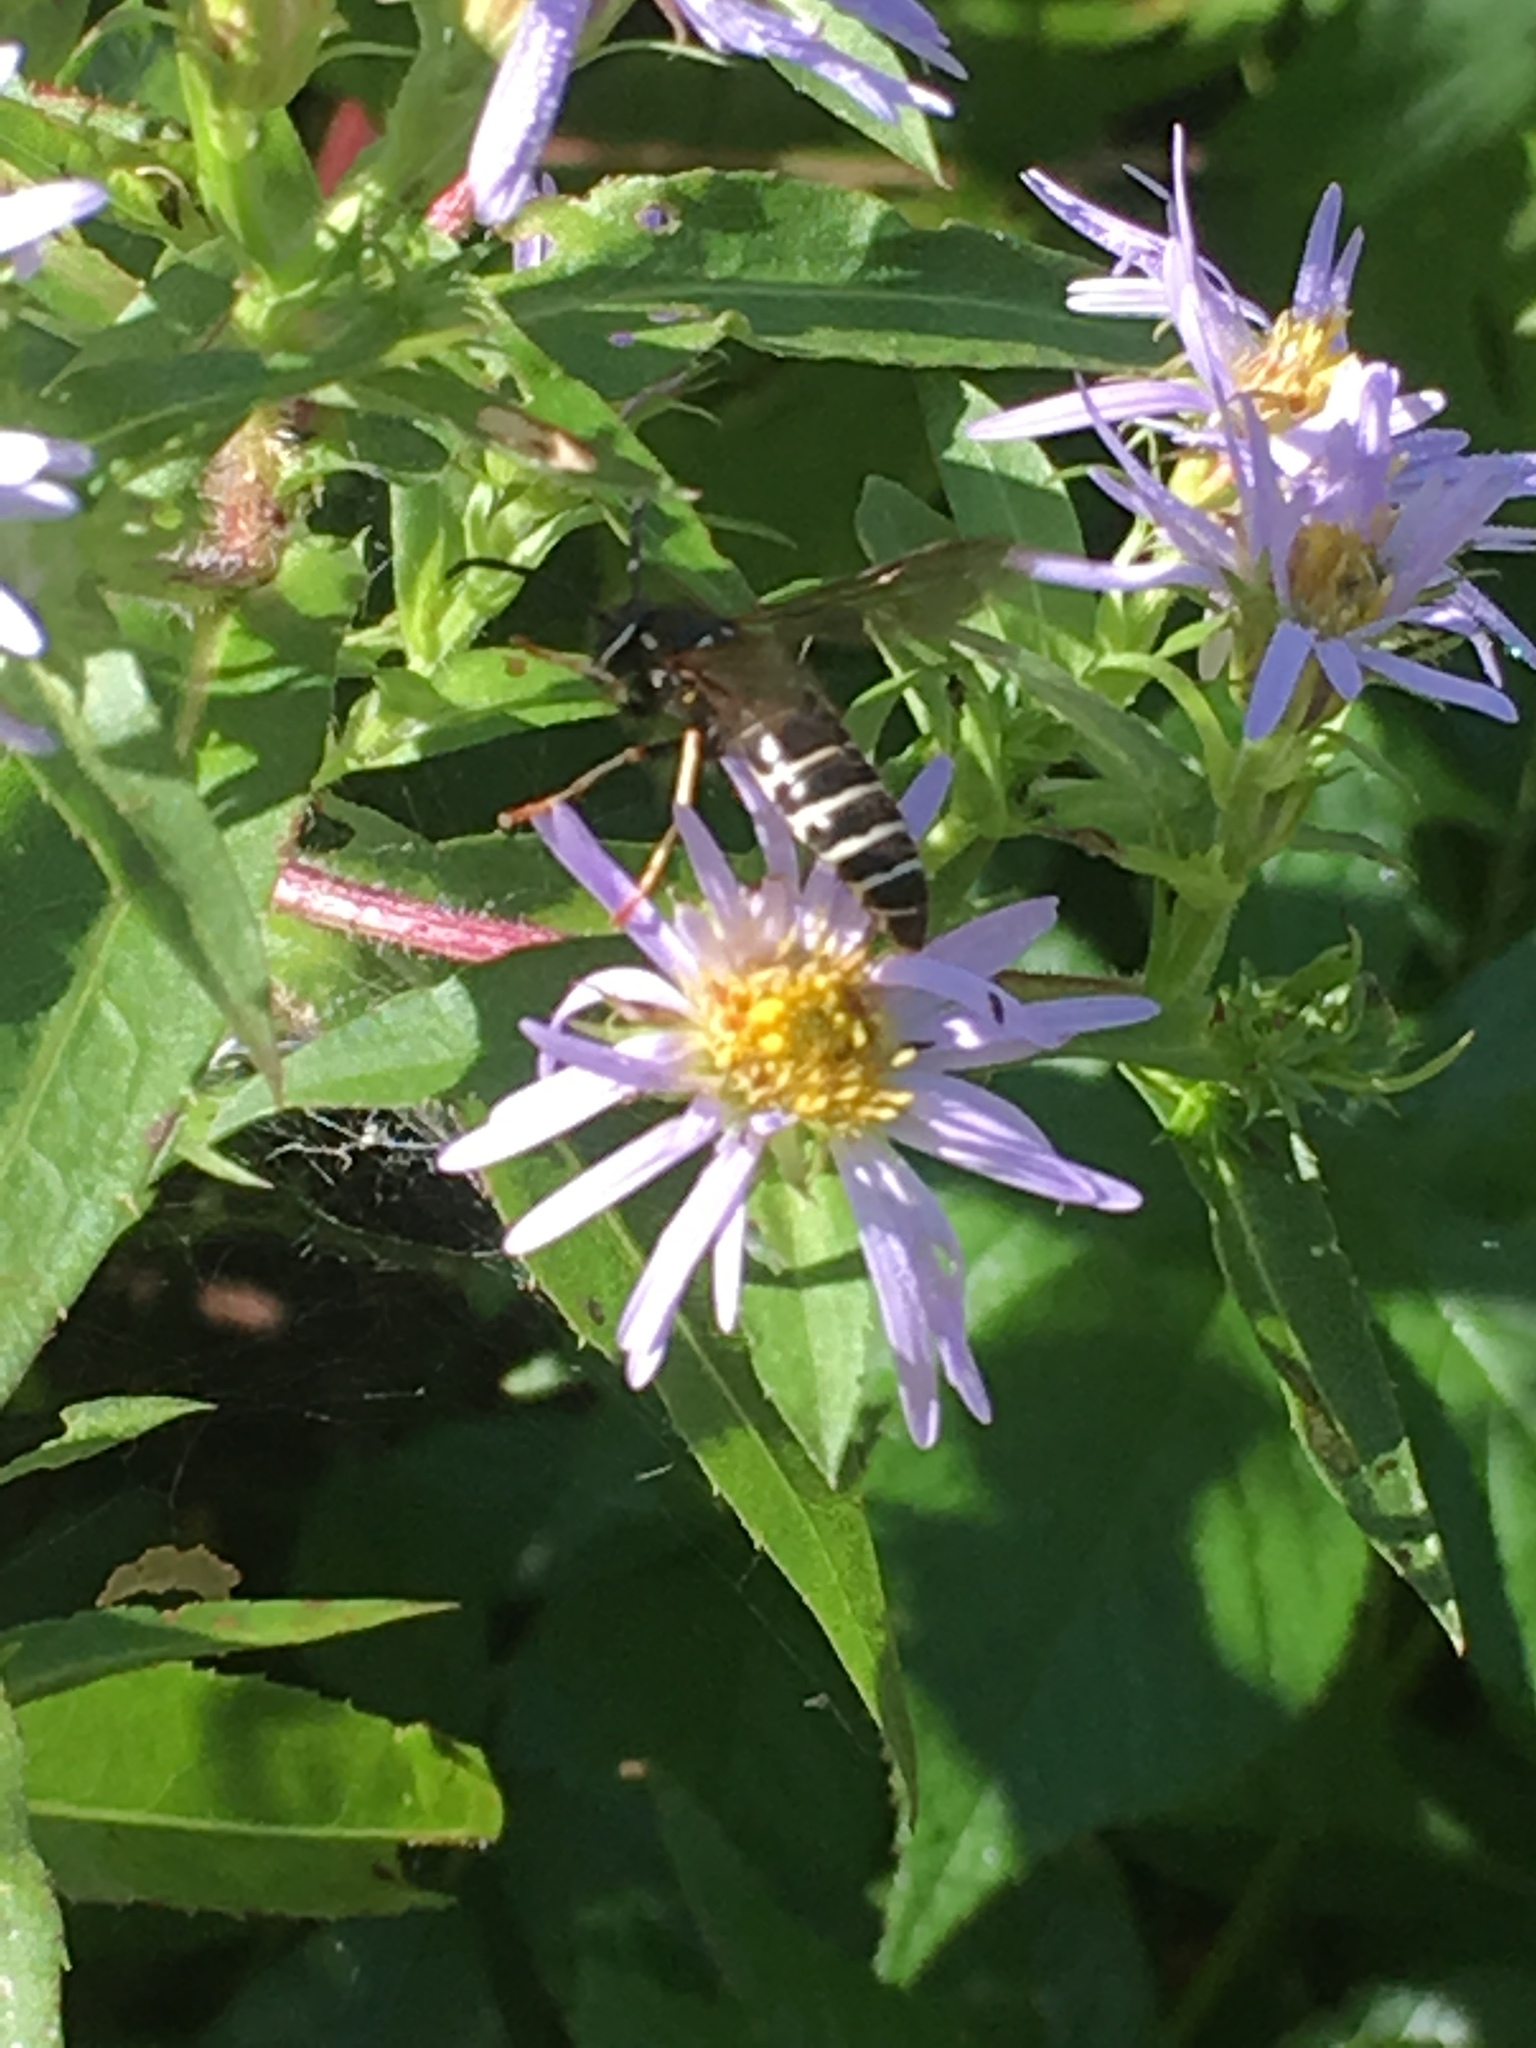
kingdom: Animalia
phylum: Arthropoda
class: Insecta
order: Hymenoptera
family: Vespidae
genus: Vespula
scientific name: Vespula consobrina
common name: Blackjacket
